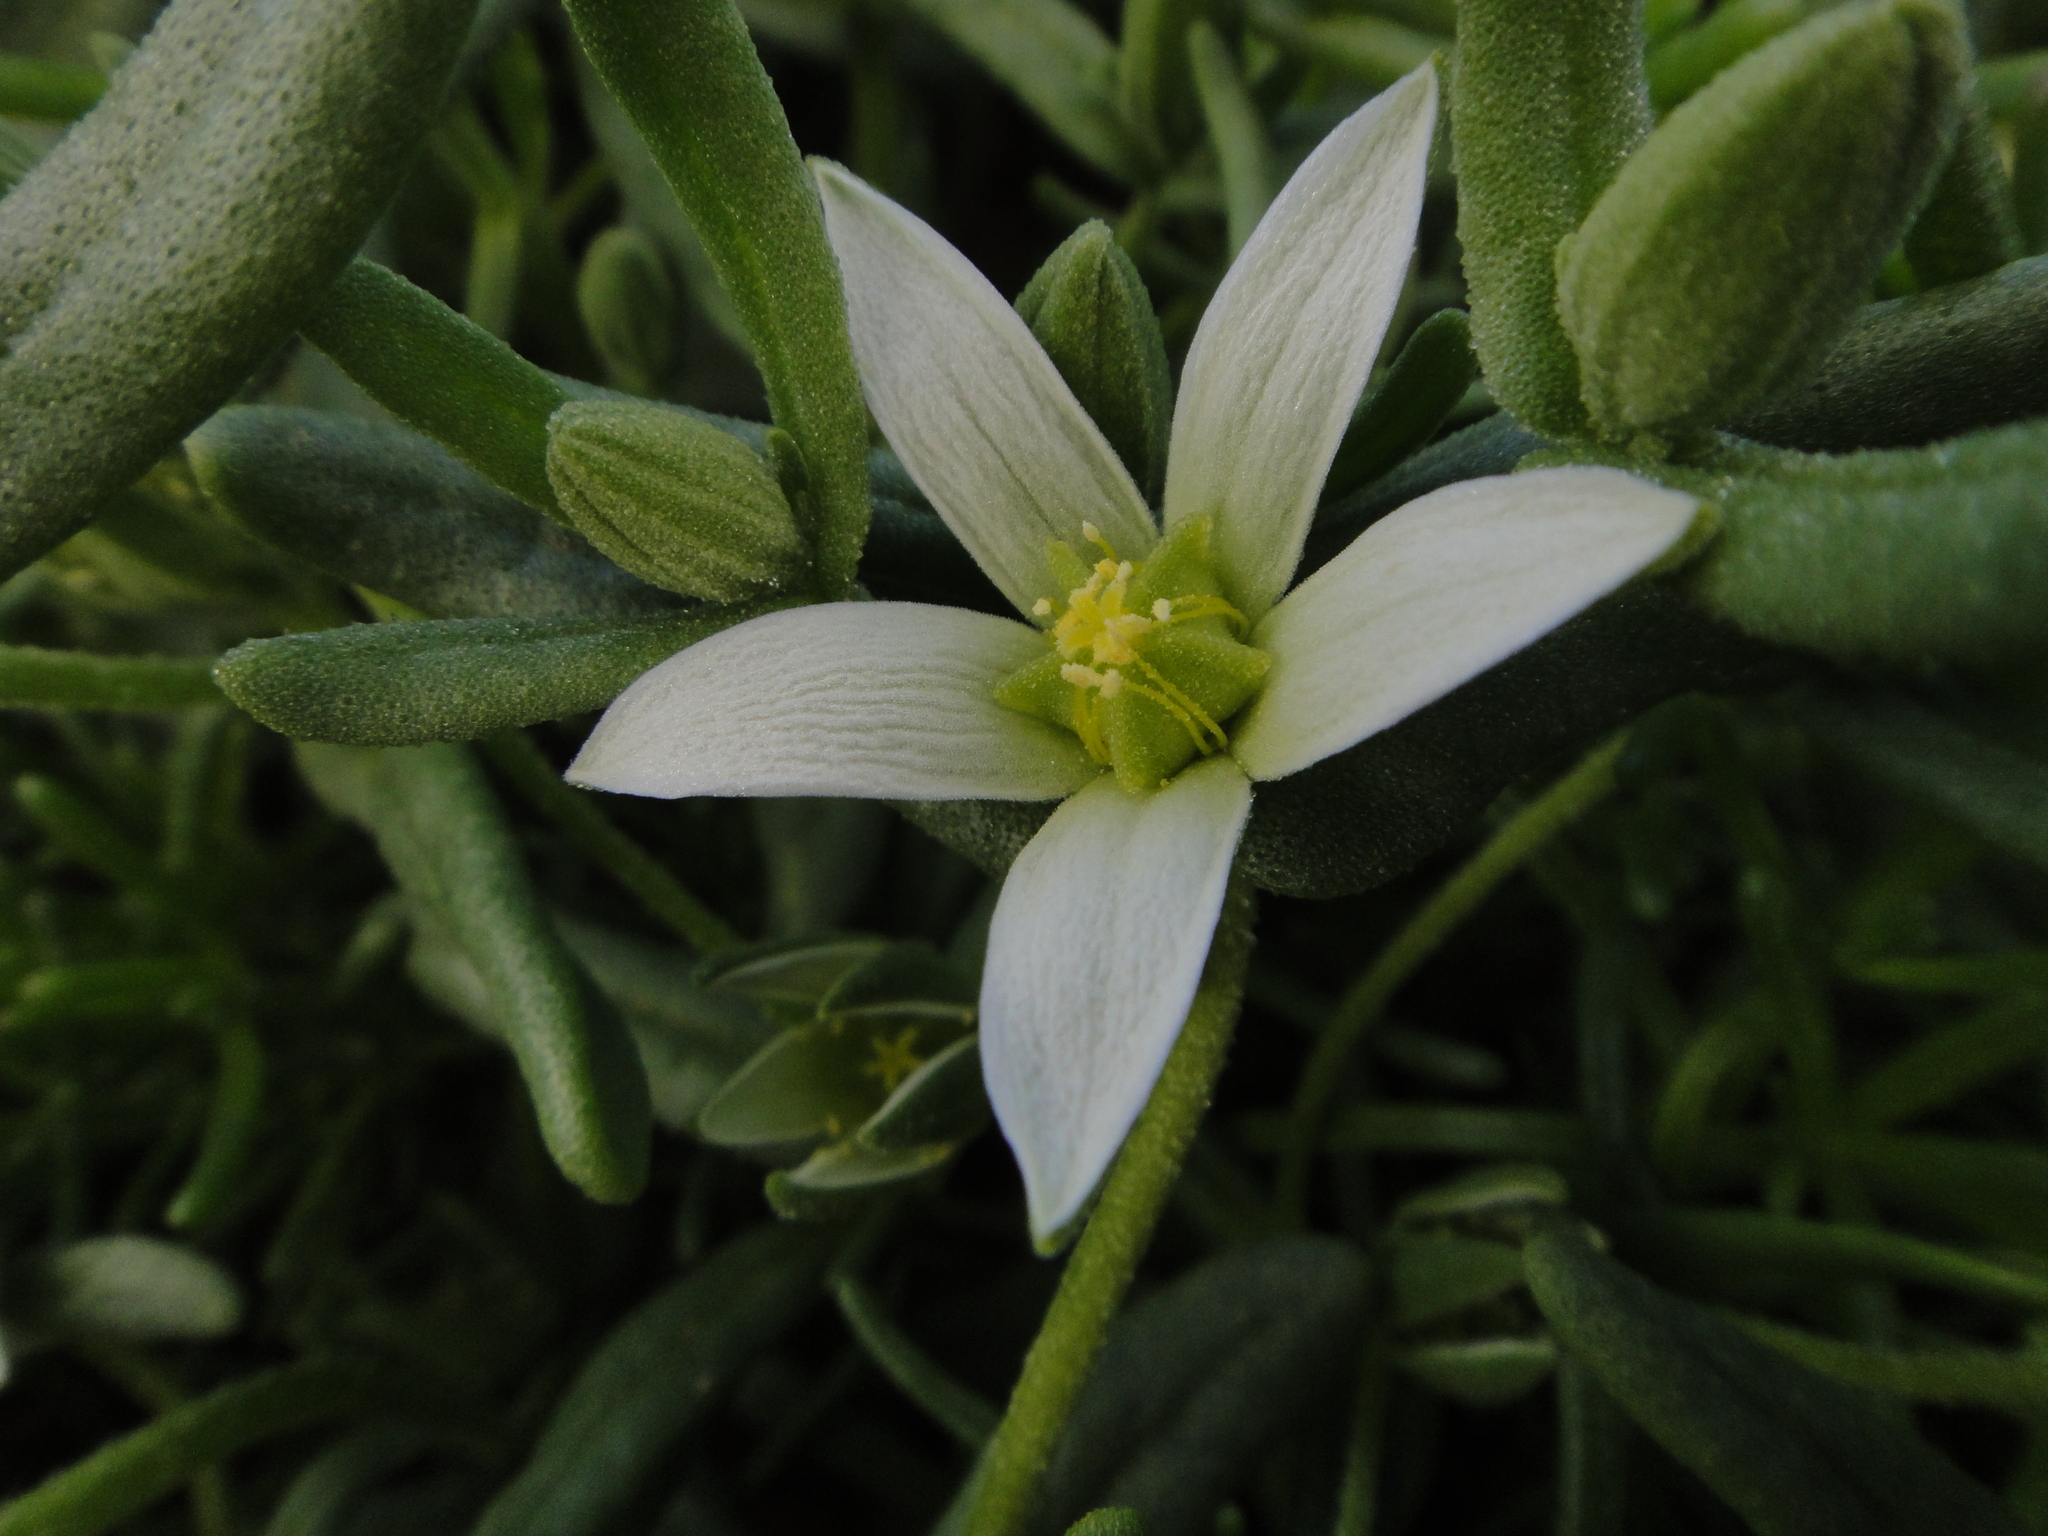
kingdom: Plantae
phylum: Tracheophyta
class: Magnoliopsida
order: Caryophyllales
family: Aizoaceae
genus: Aizoanthemopsis
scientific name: Aizoanthemopsis hispanica
